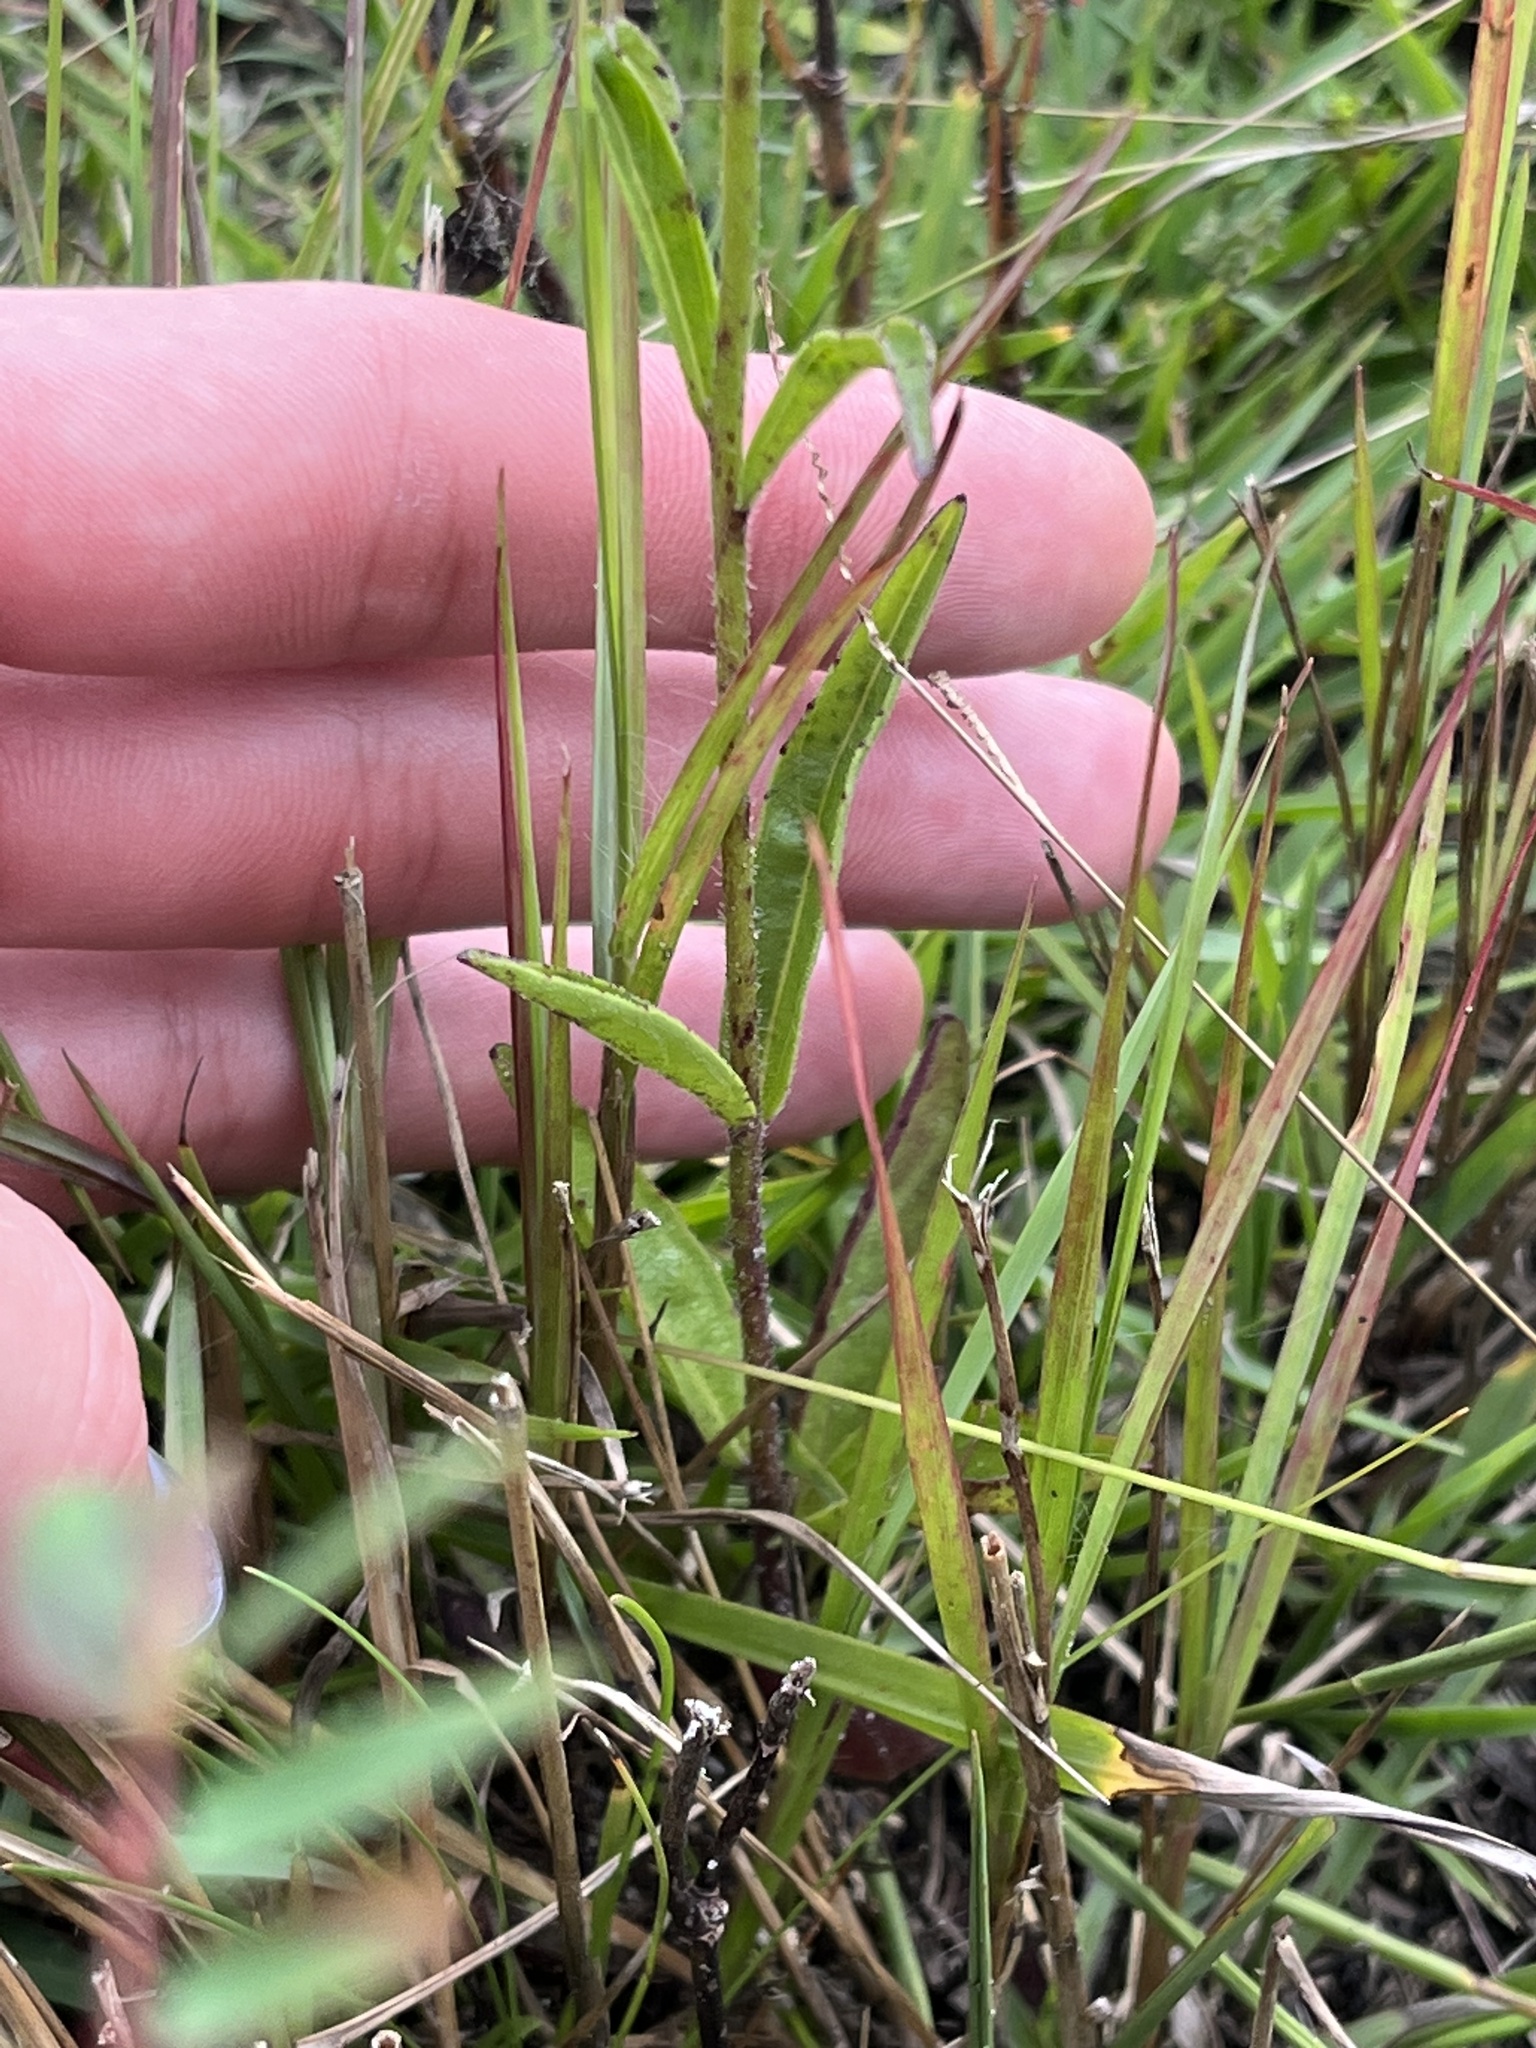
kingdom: Plantae
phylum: Tracheophyta
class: Magnoliopsida
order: Lamiales
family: Orobanchaceae
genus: Buchnera
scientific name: Buchnera floridana
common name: Florida bluehearts
